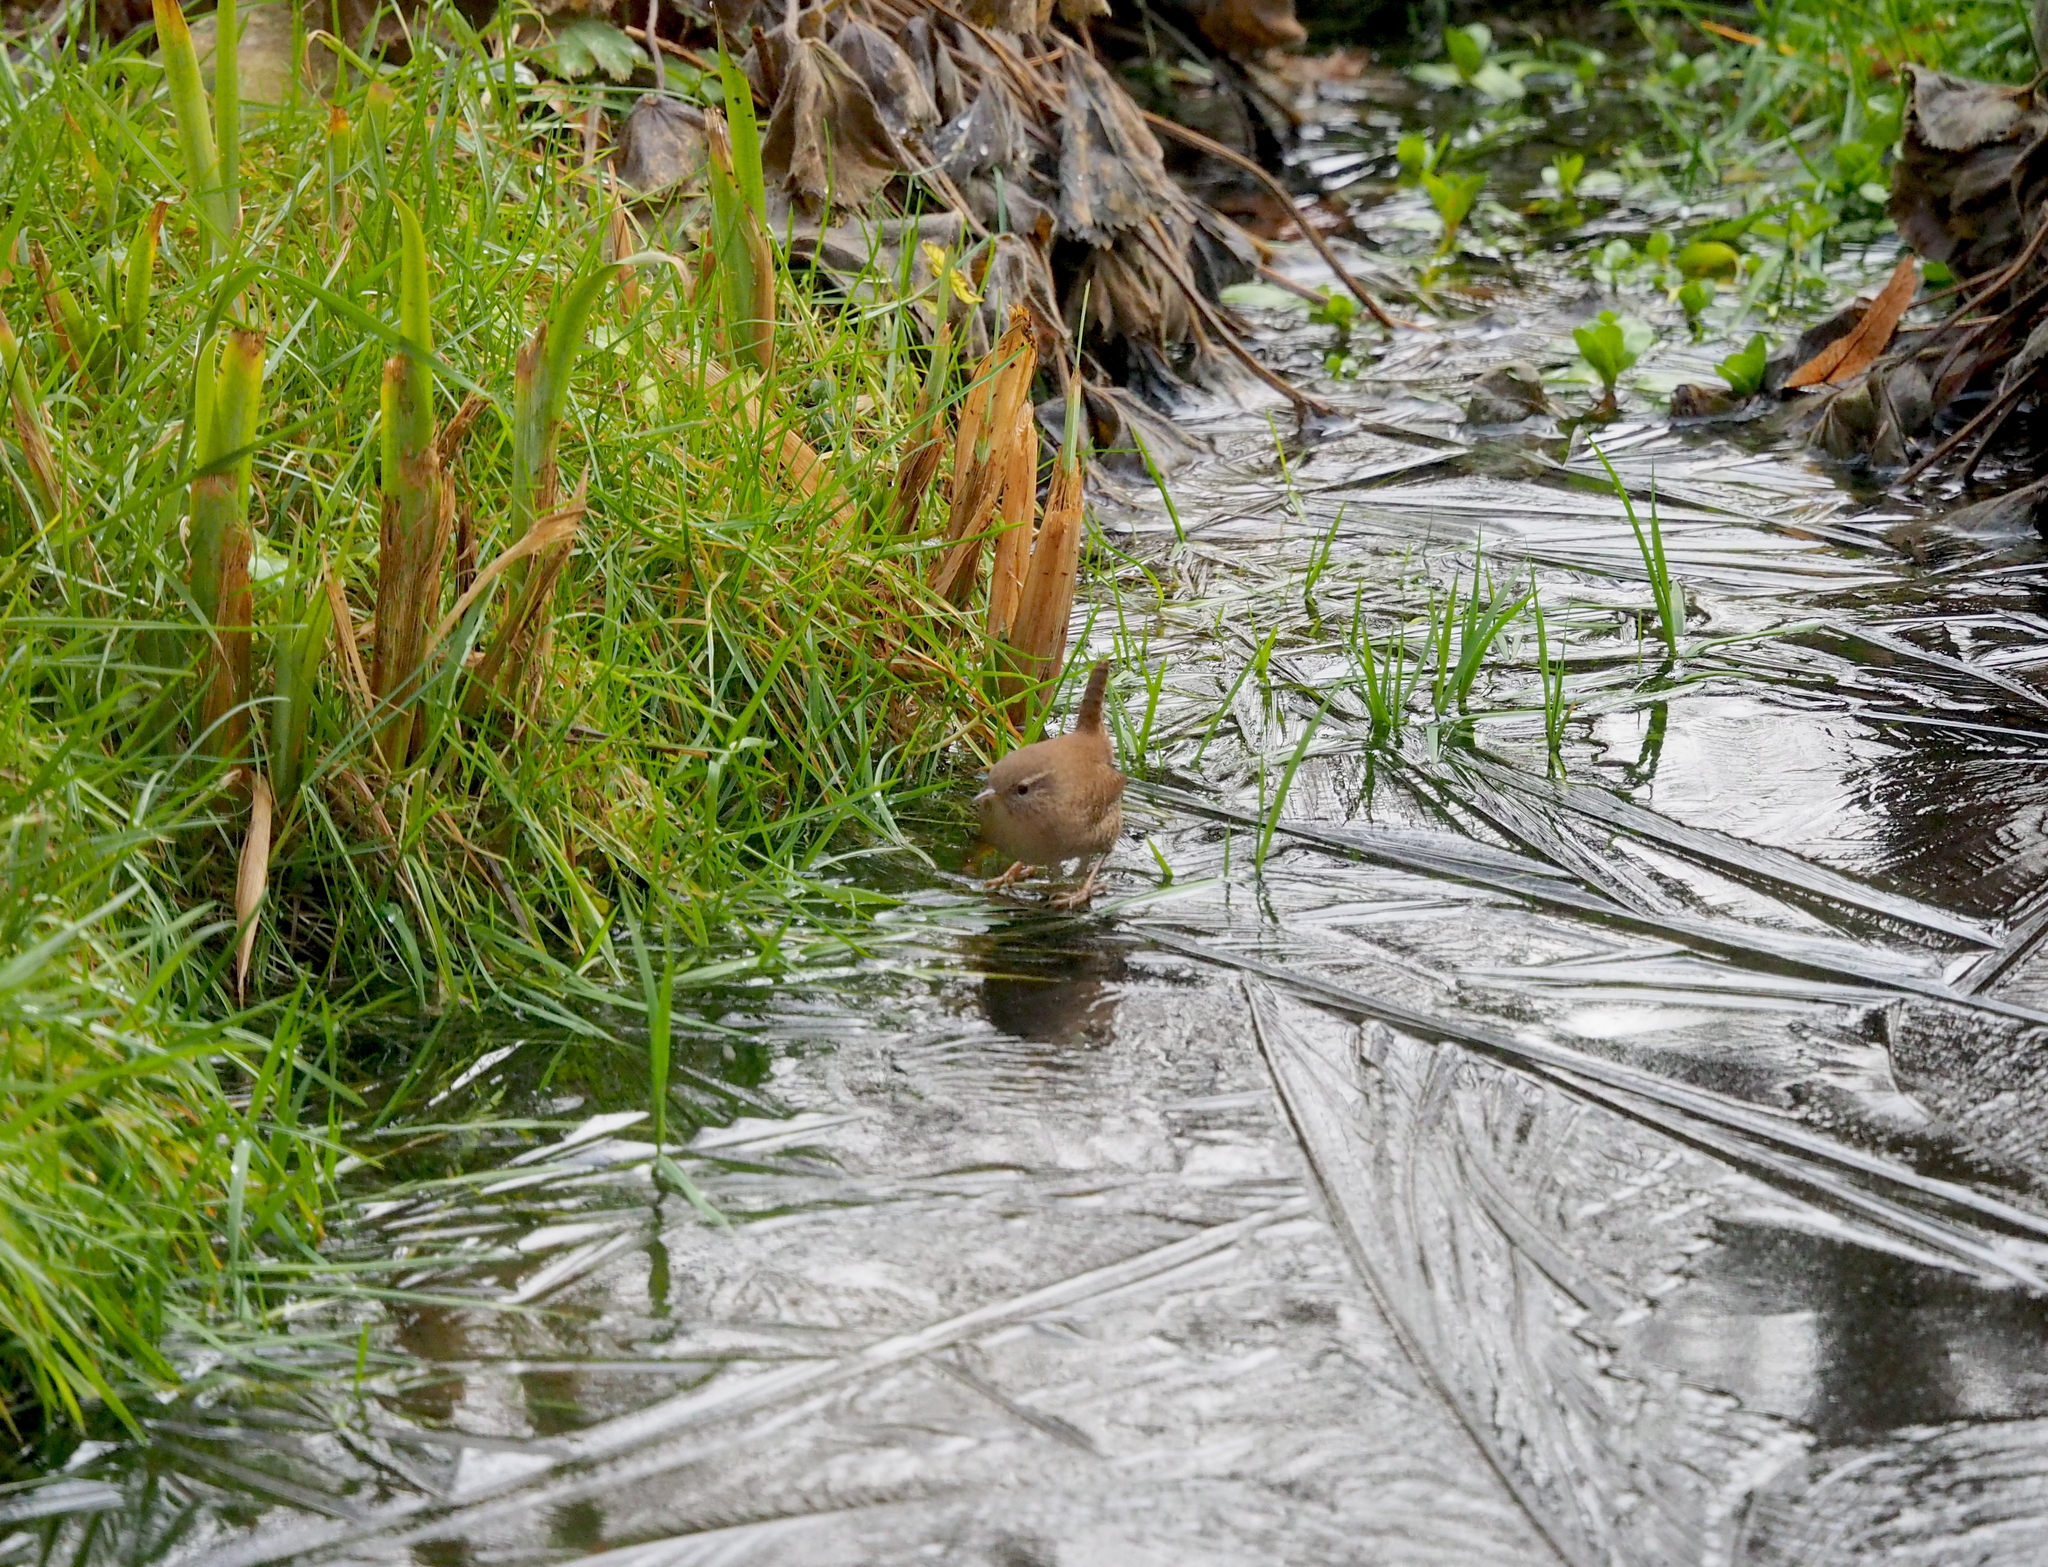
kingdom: Animalia
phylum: Chordata
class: Aves
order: Passeriformes
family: Troglodytidae
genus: Troglodytes
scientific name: Troglodytes troglodytes
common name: Eurasian wren
